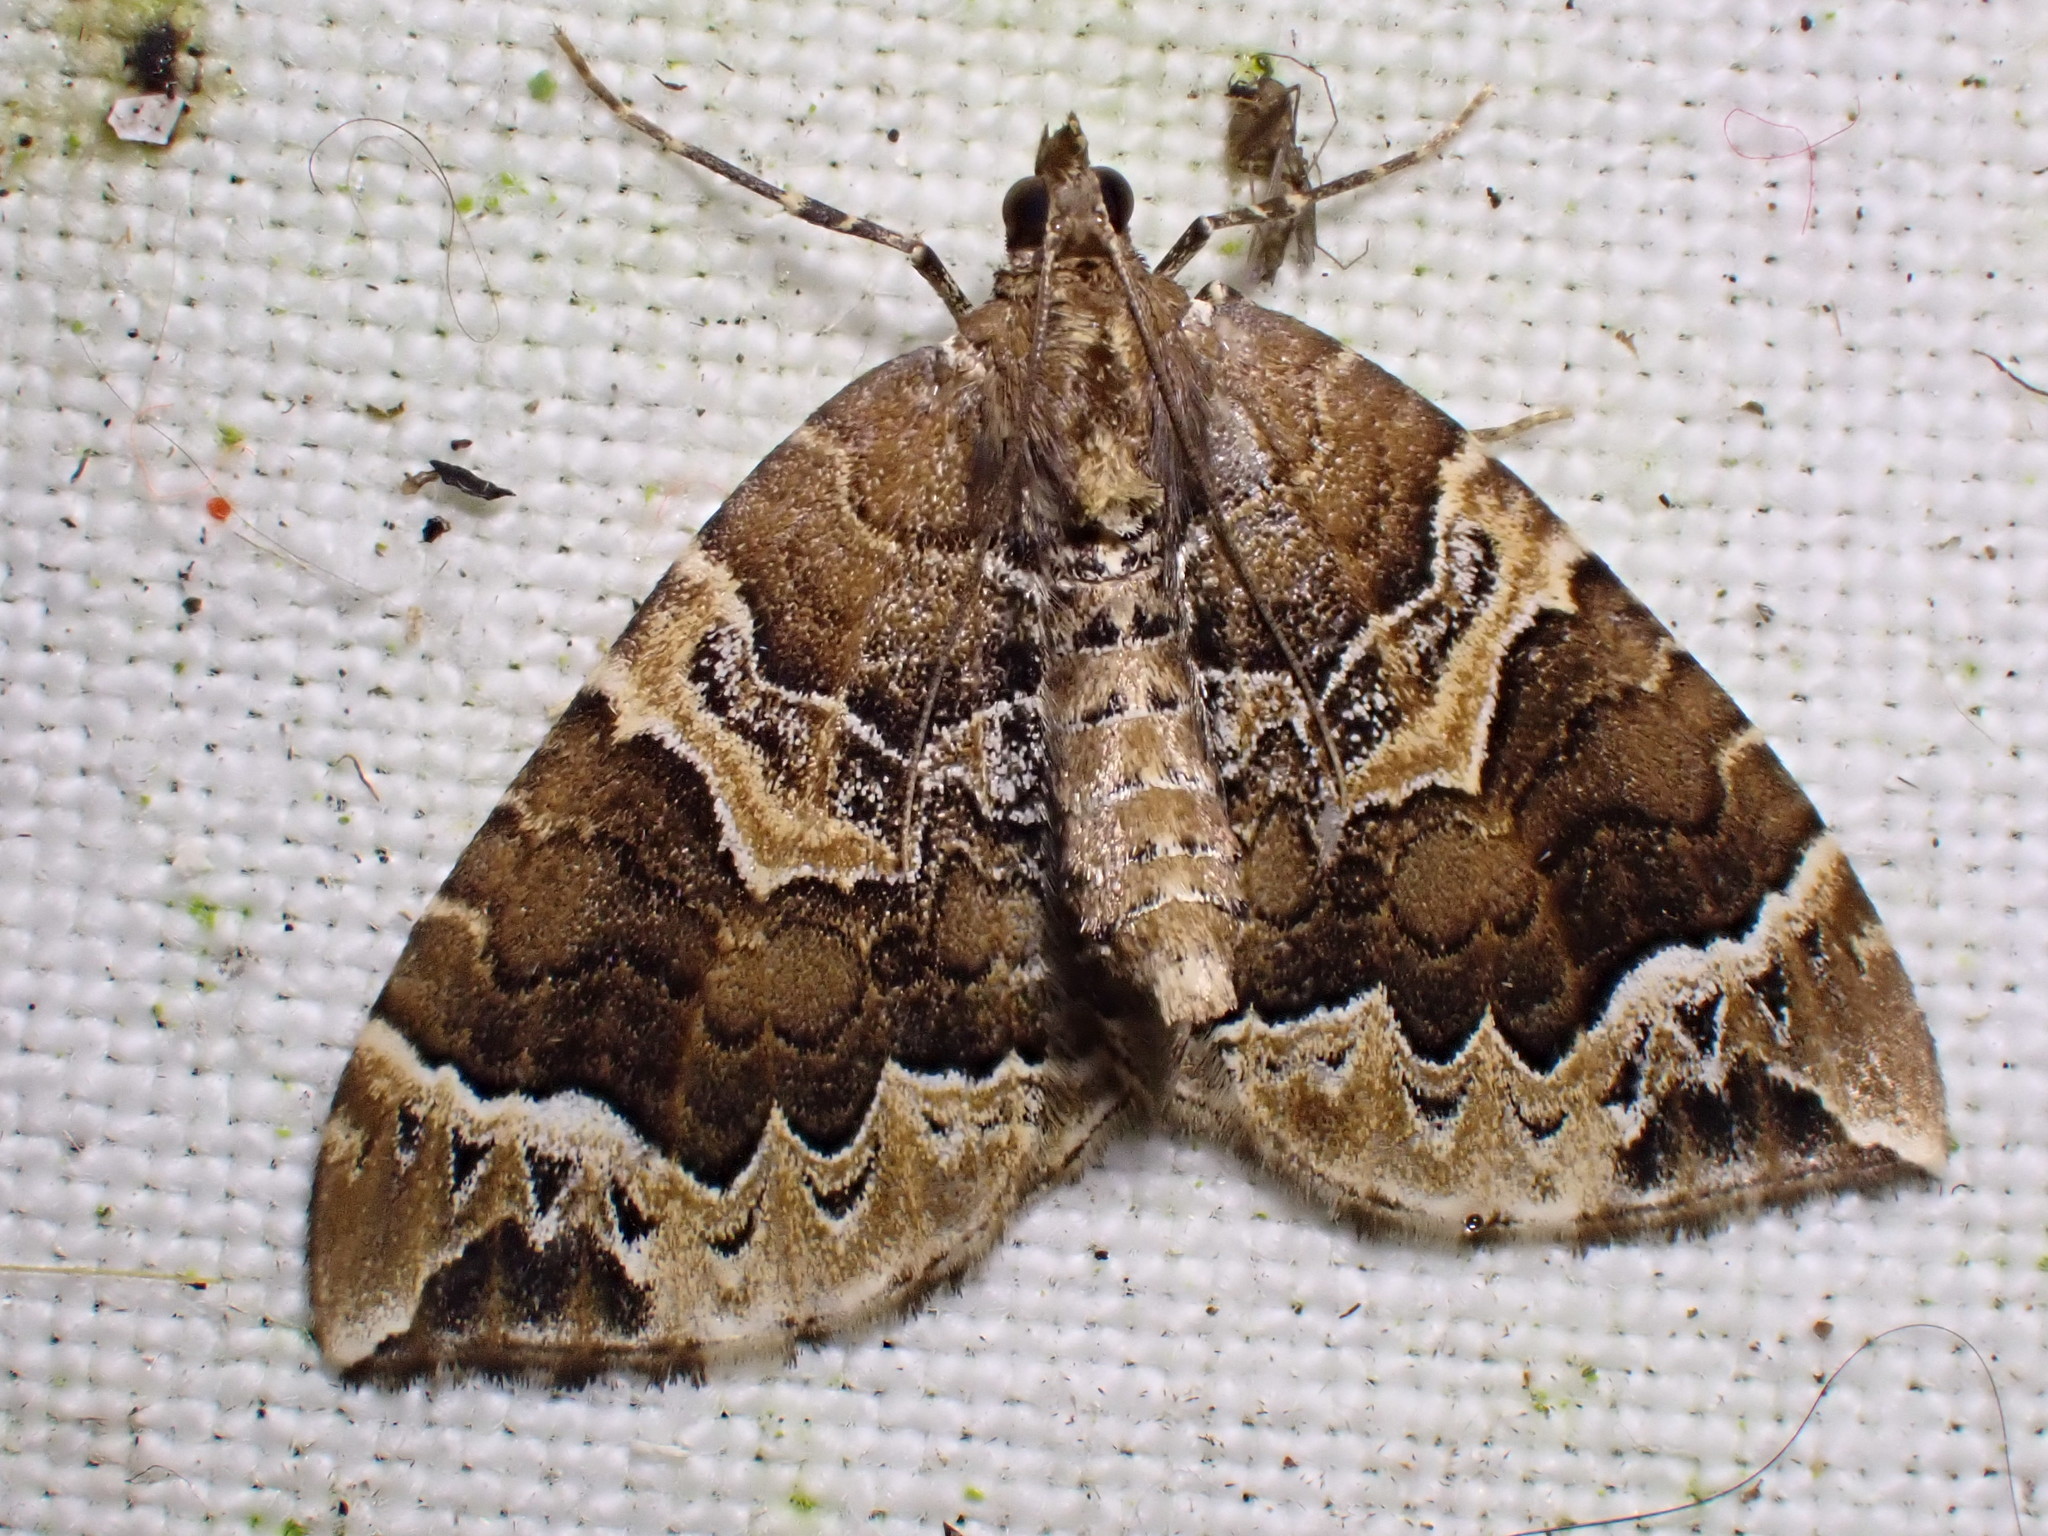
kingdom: Animalia
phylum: Arthropoda
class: Insecta
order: Lepidoptera
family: Geometridae
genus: Eulithis
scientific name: Eulithis prunata
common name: Phoenix
